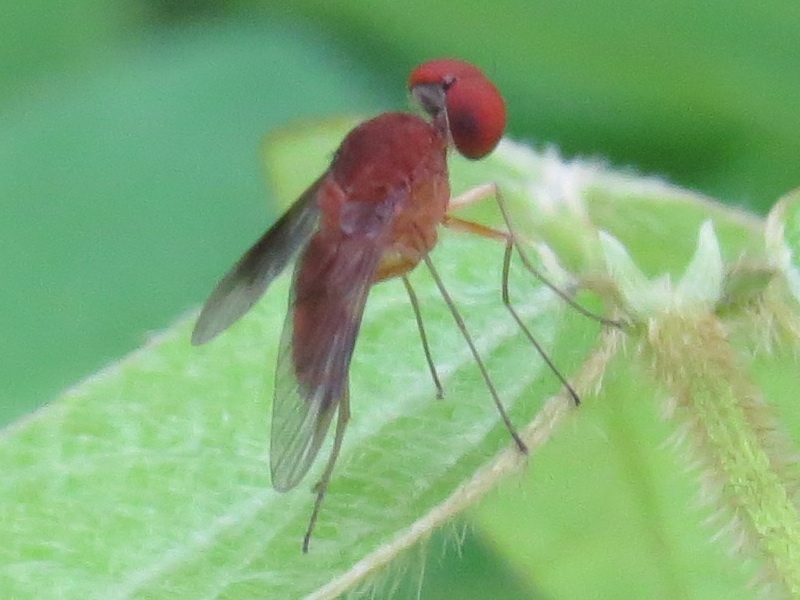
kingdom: Animalia
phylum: Arthropoda
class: Insecta
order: Diptera
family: Rhagionidae
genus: Chrysopilus
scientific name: Chrysopilus quadratus
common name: Quadrate snipe fly
